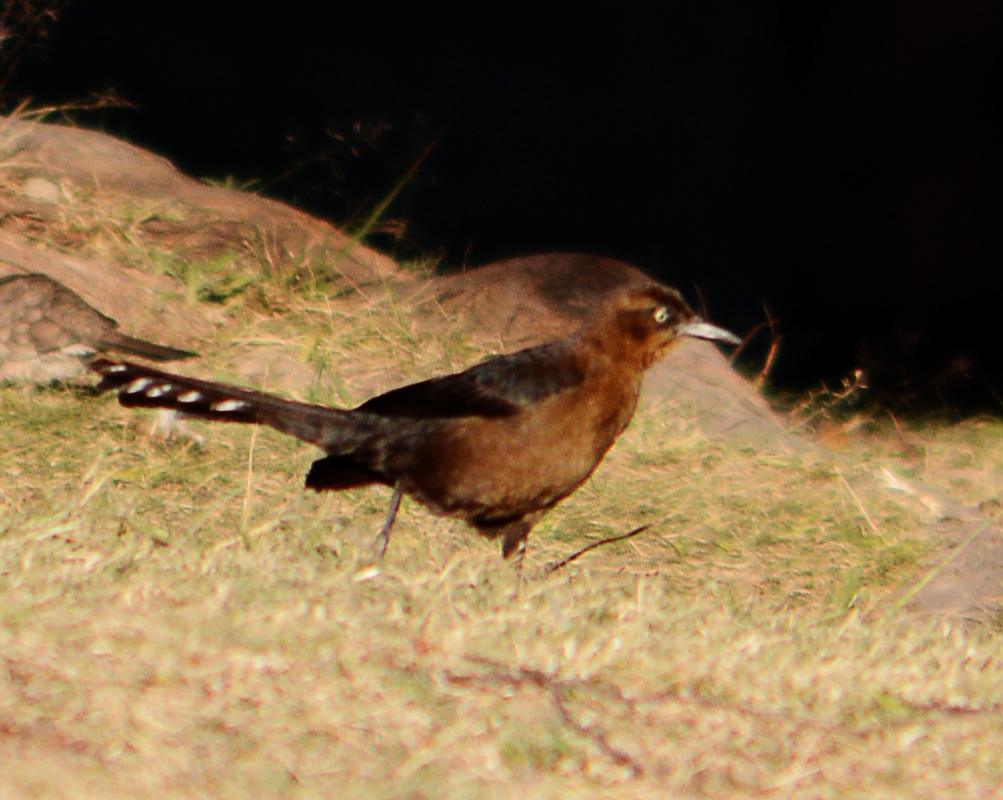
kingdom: Animalia
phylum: Chordata
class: Aves
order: Passeriformes
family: Icteridae
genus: Quiscalus
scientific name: Quiscalus mexicanus
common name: Great-tailed grackle
